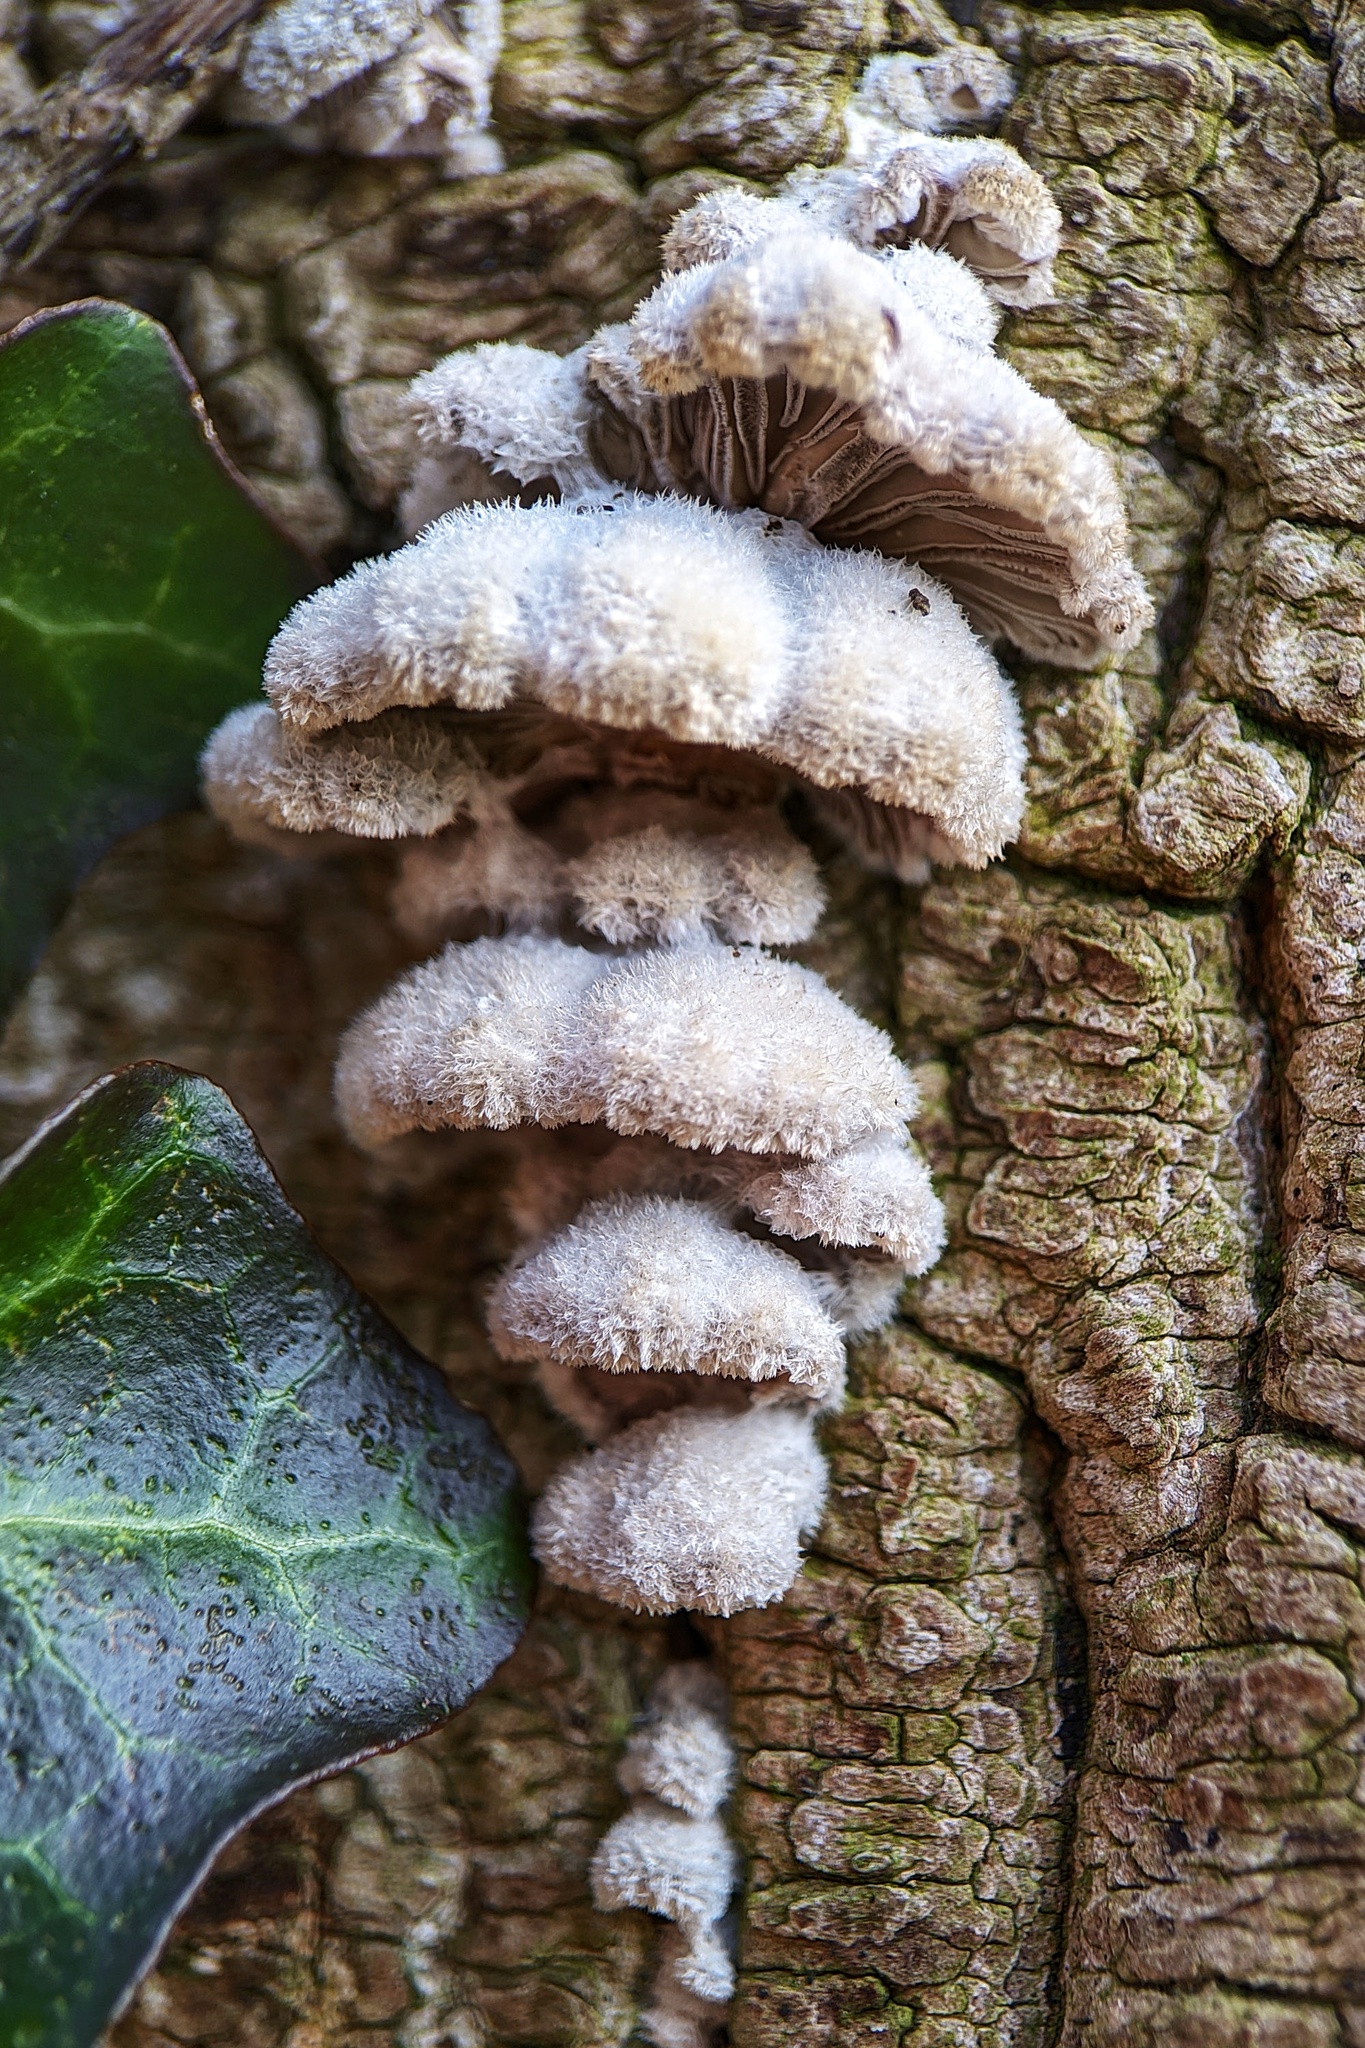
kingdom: Fungi
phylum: Basidiomycota
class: Agaricomycetes
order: Agaricales
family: Schizophyllaceae
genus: Schizophyllum
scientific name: Schizophyllum commune
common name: Common porecrust
